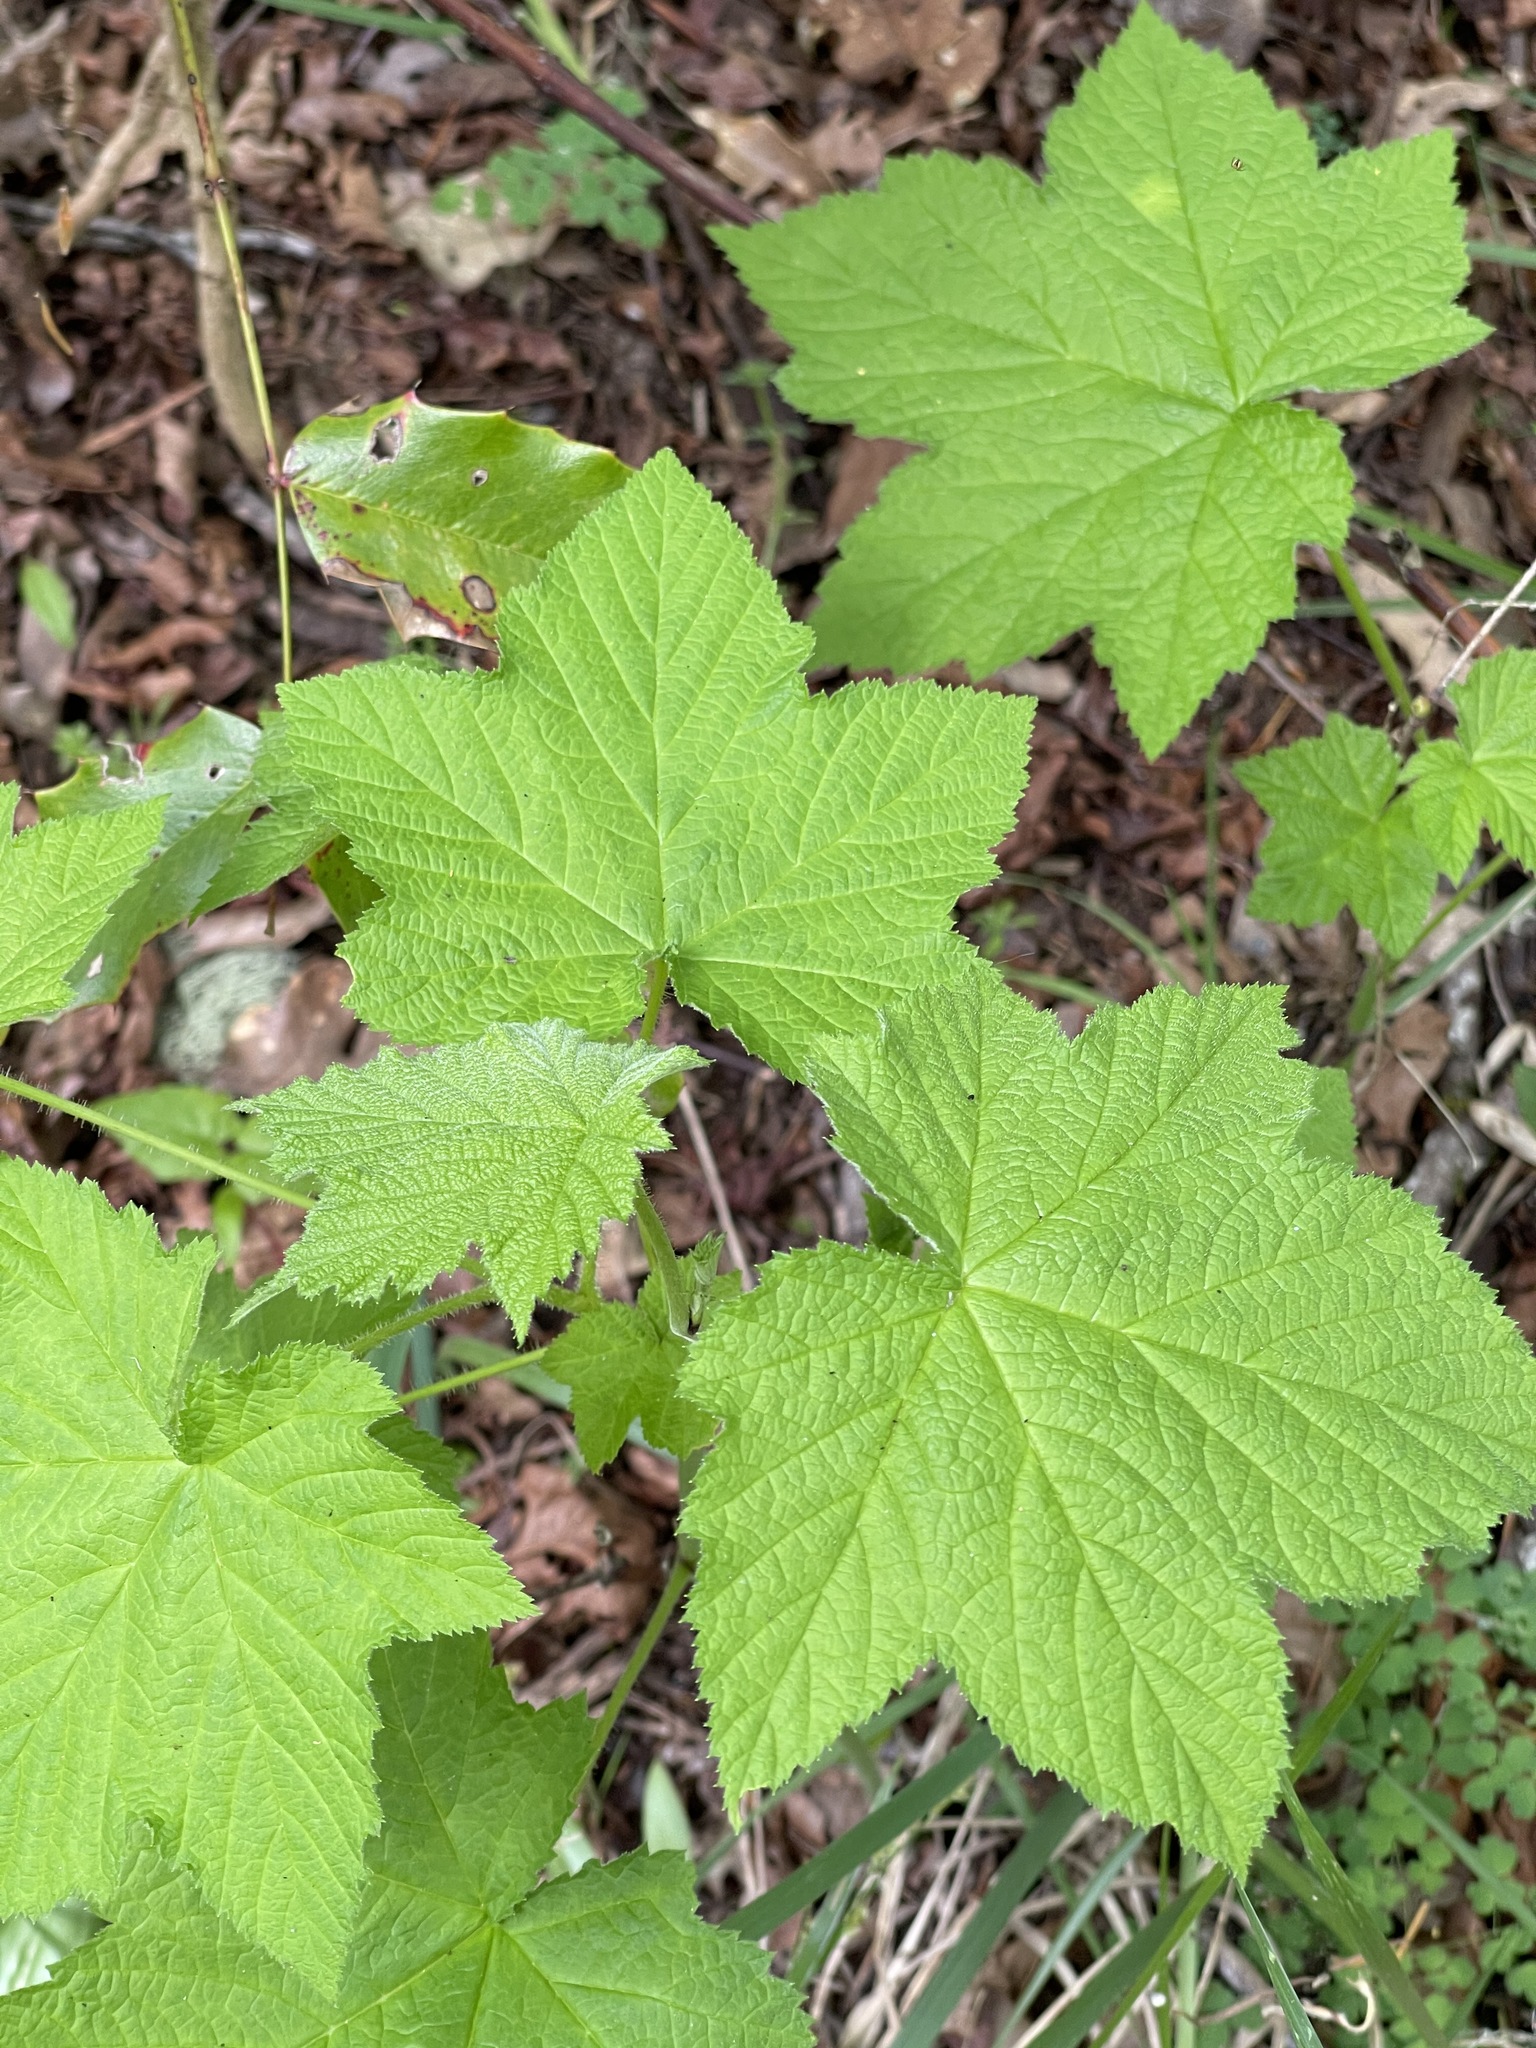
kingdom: Plantae
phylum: Tracheophyta
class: Magnoliopsida
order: Rosales
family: Rosaceae
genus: Rubus
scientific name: Rubus parviflorus
